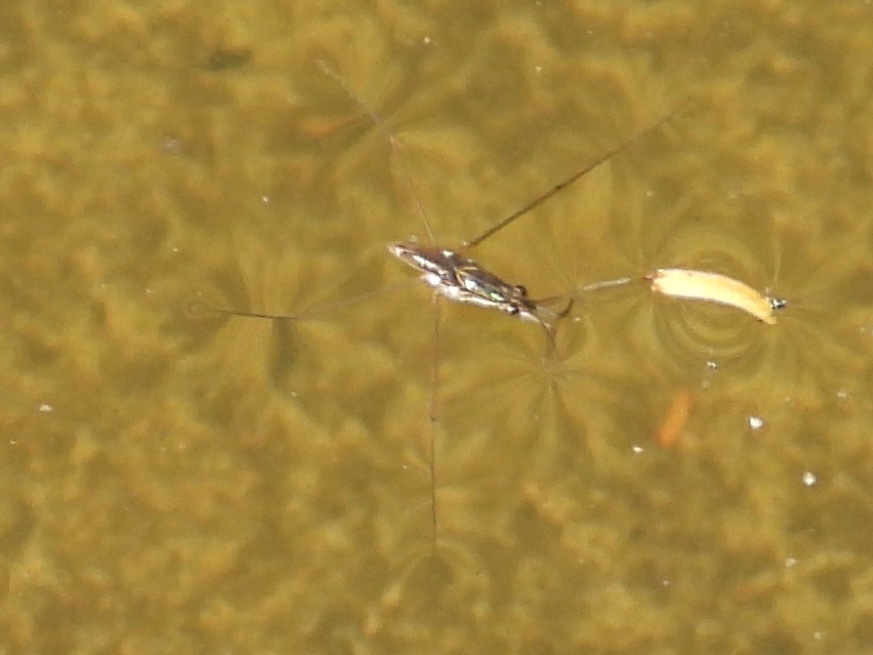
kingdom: Animalia
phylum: Arthropoda
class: Insecta
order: Hemiptera
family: Gerridae
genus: Limnogonus
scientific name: Limnogonus
